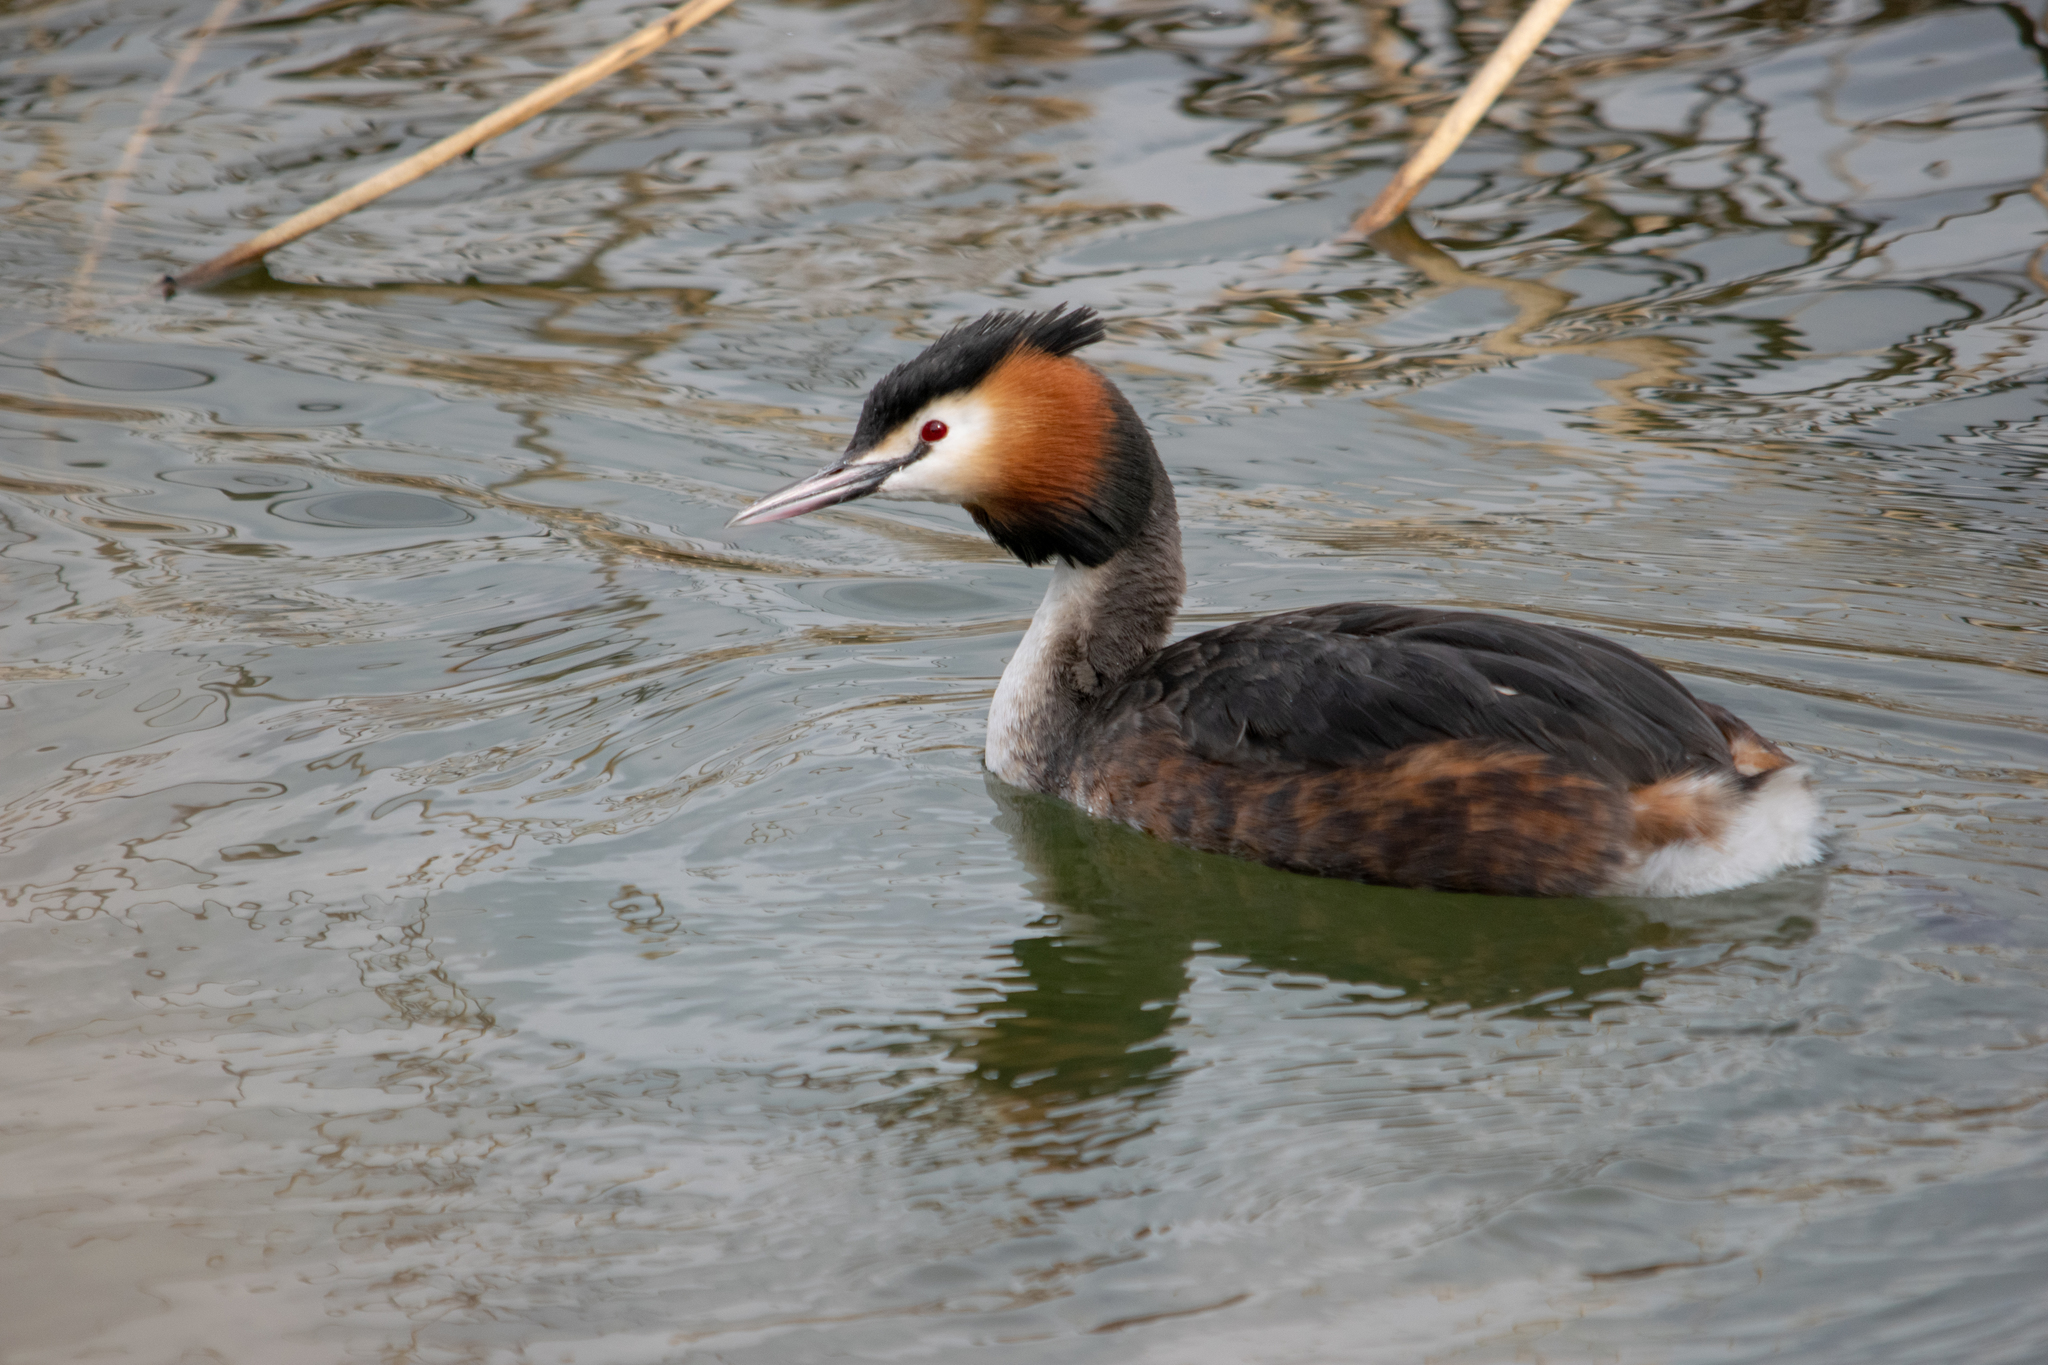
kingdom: Animalia
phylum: Chordata
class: Aves
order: Podicipediformes
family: Podicipedidae
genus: Podiceps
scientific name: Podiceps cristatus
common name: Great crested grebe
